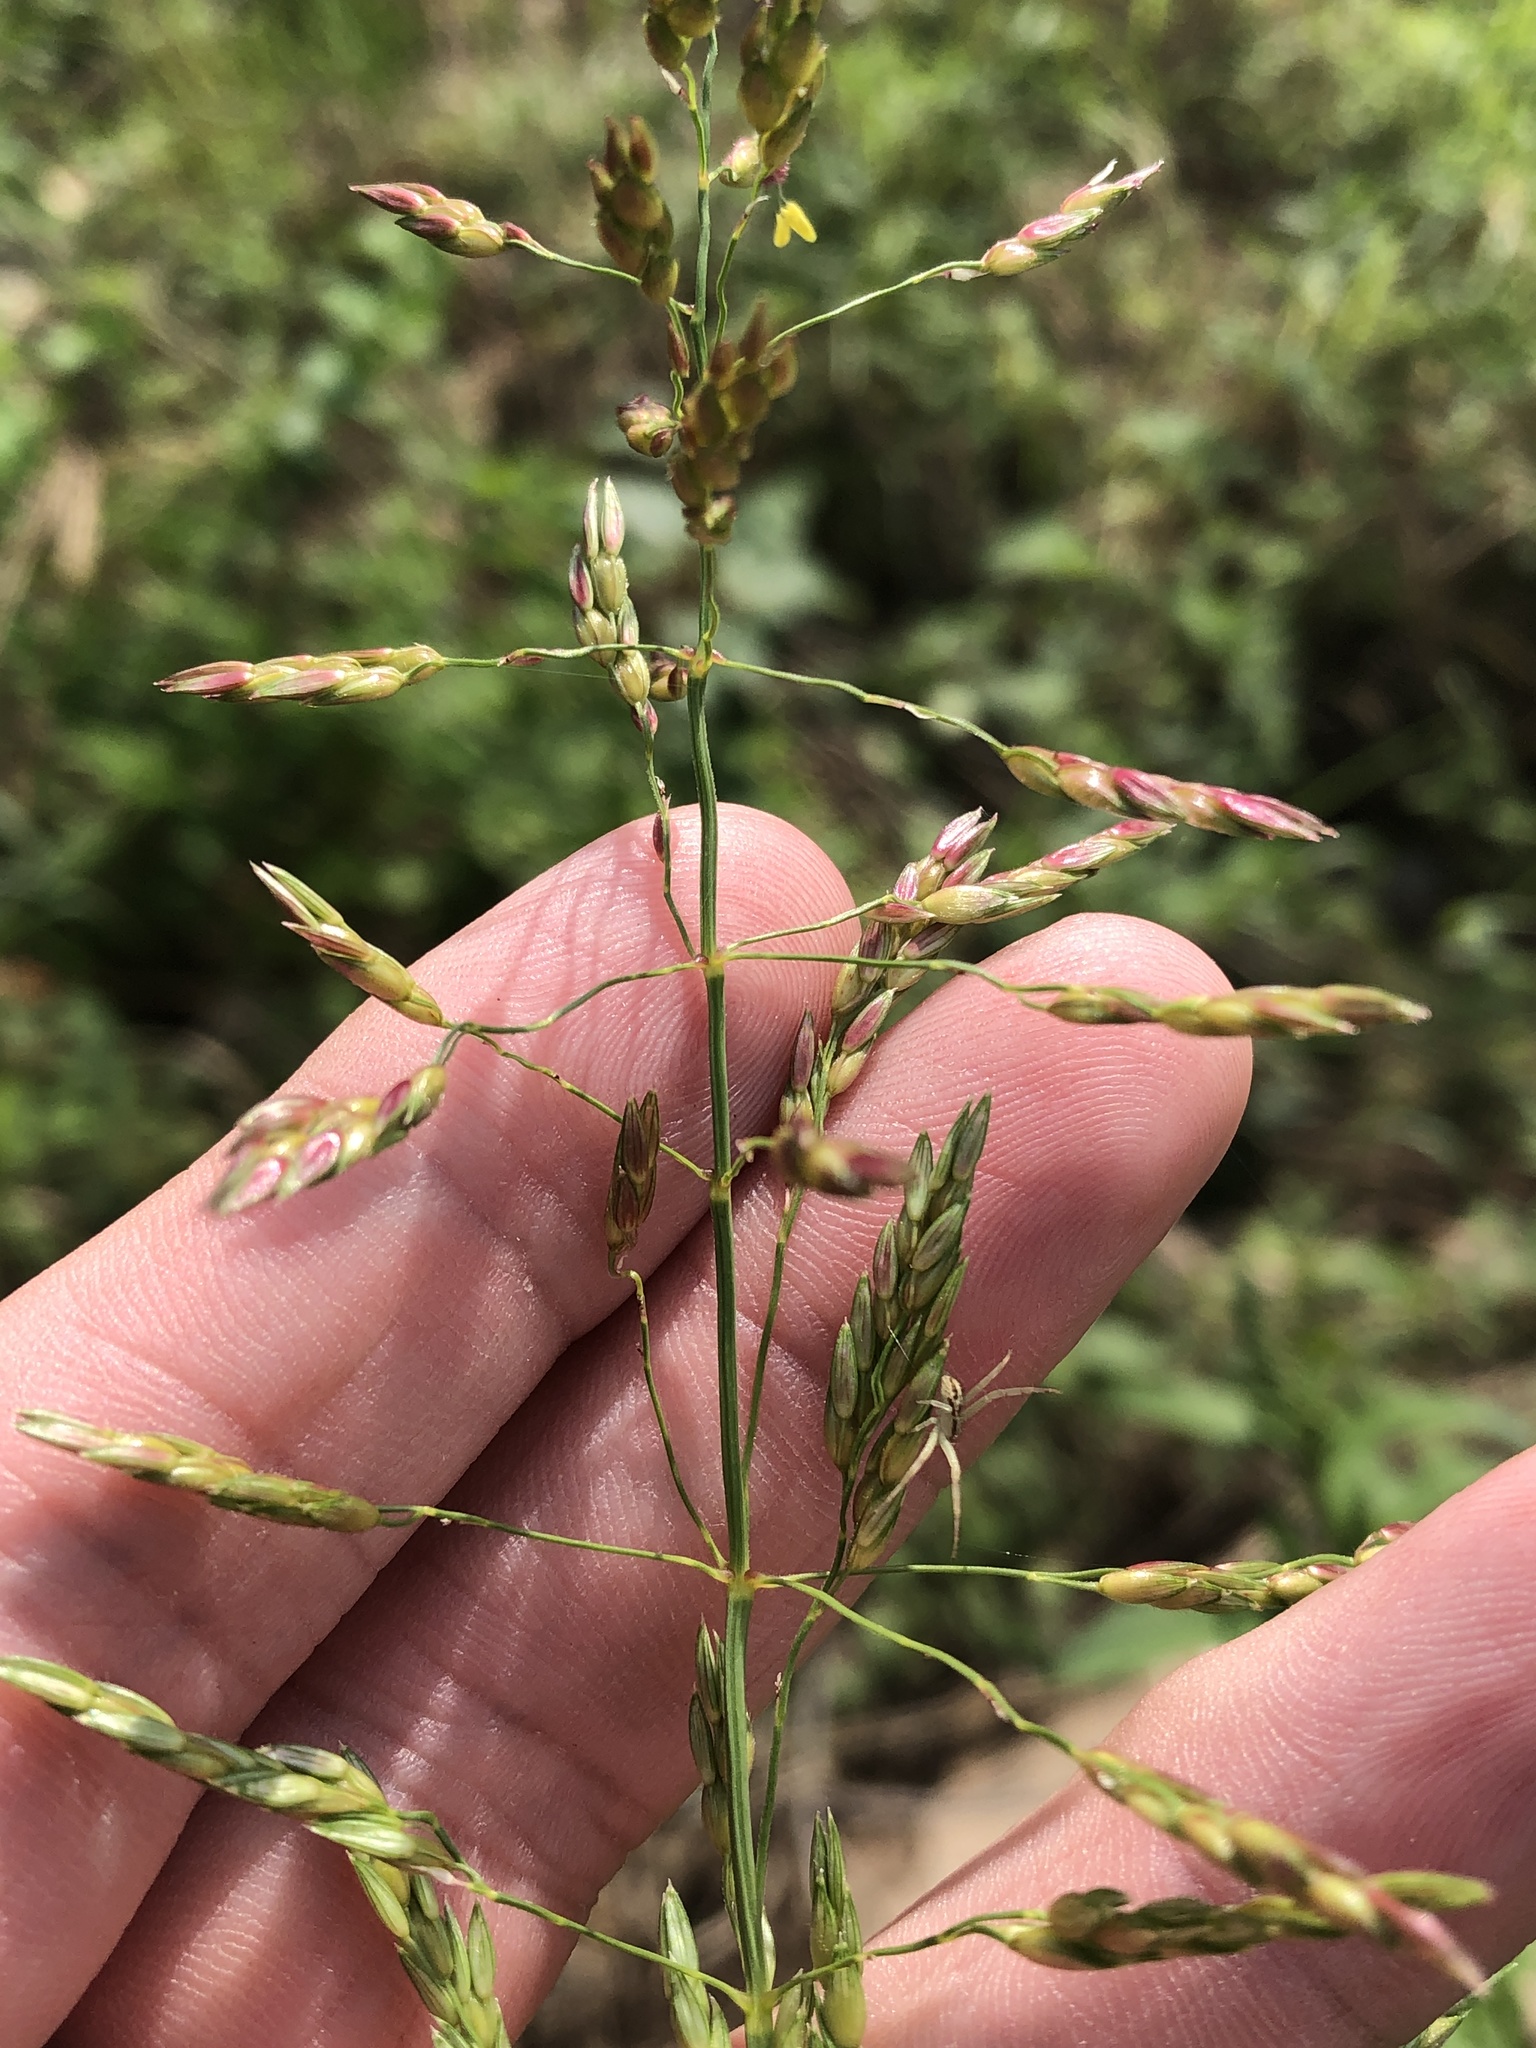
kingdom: Plantae
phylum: Tracheophyta
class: Liliopsida
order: Poales
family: Poaceae
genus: Sorghum
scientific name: Sorghum halepense
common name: Johnson-grass
